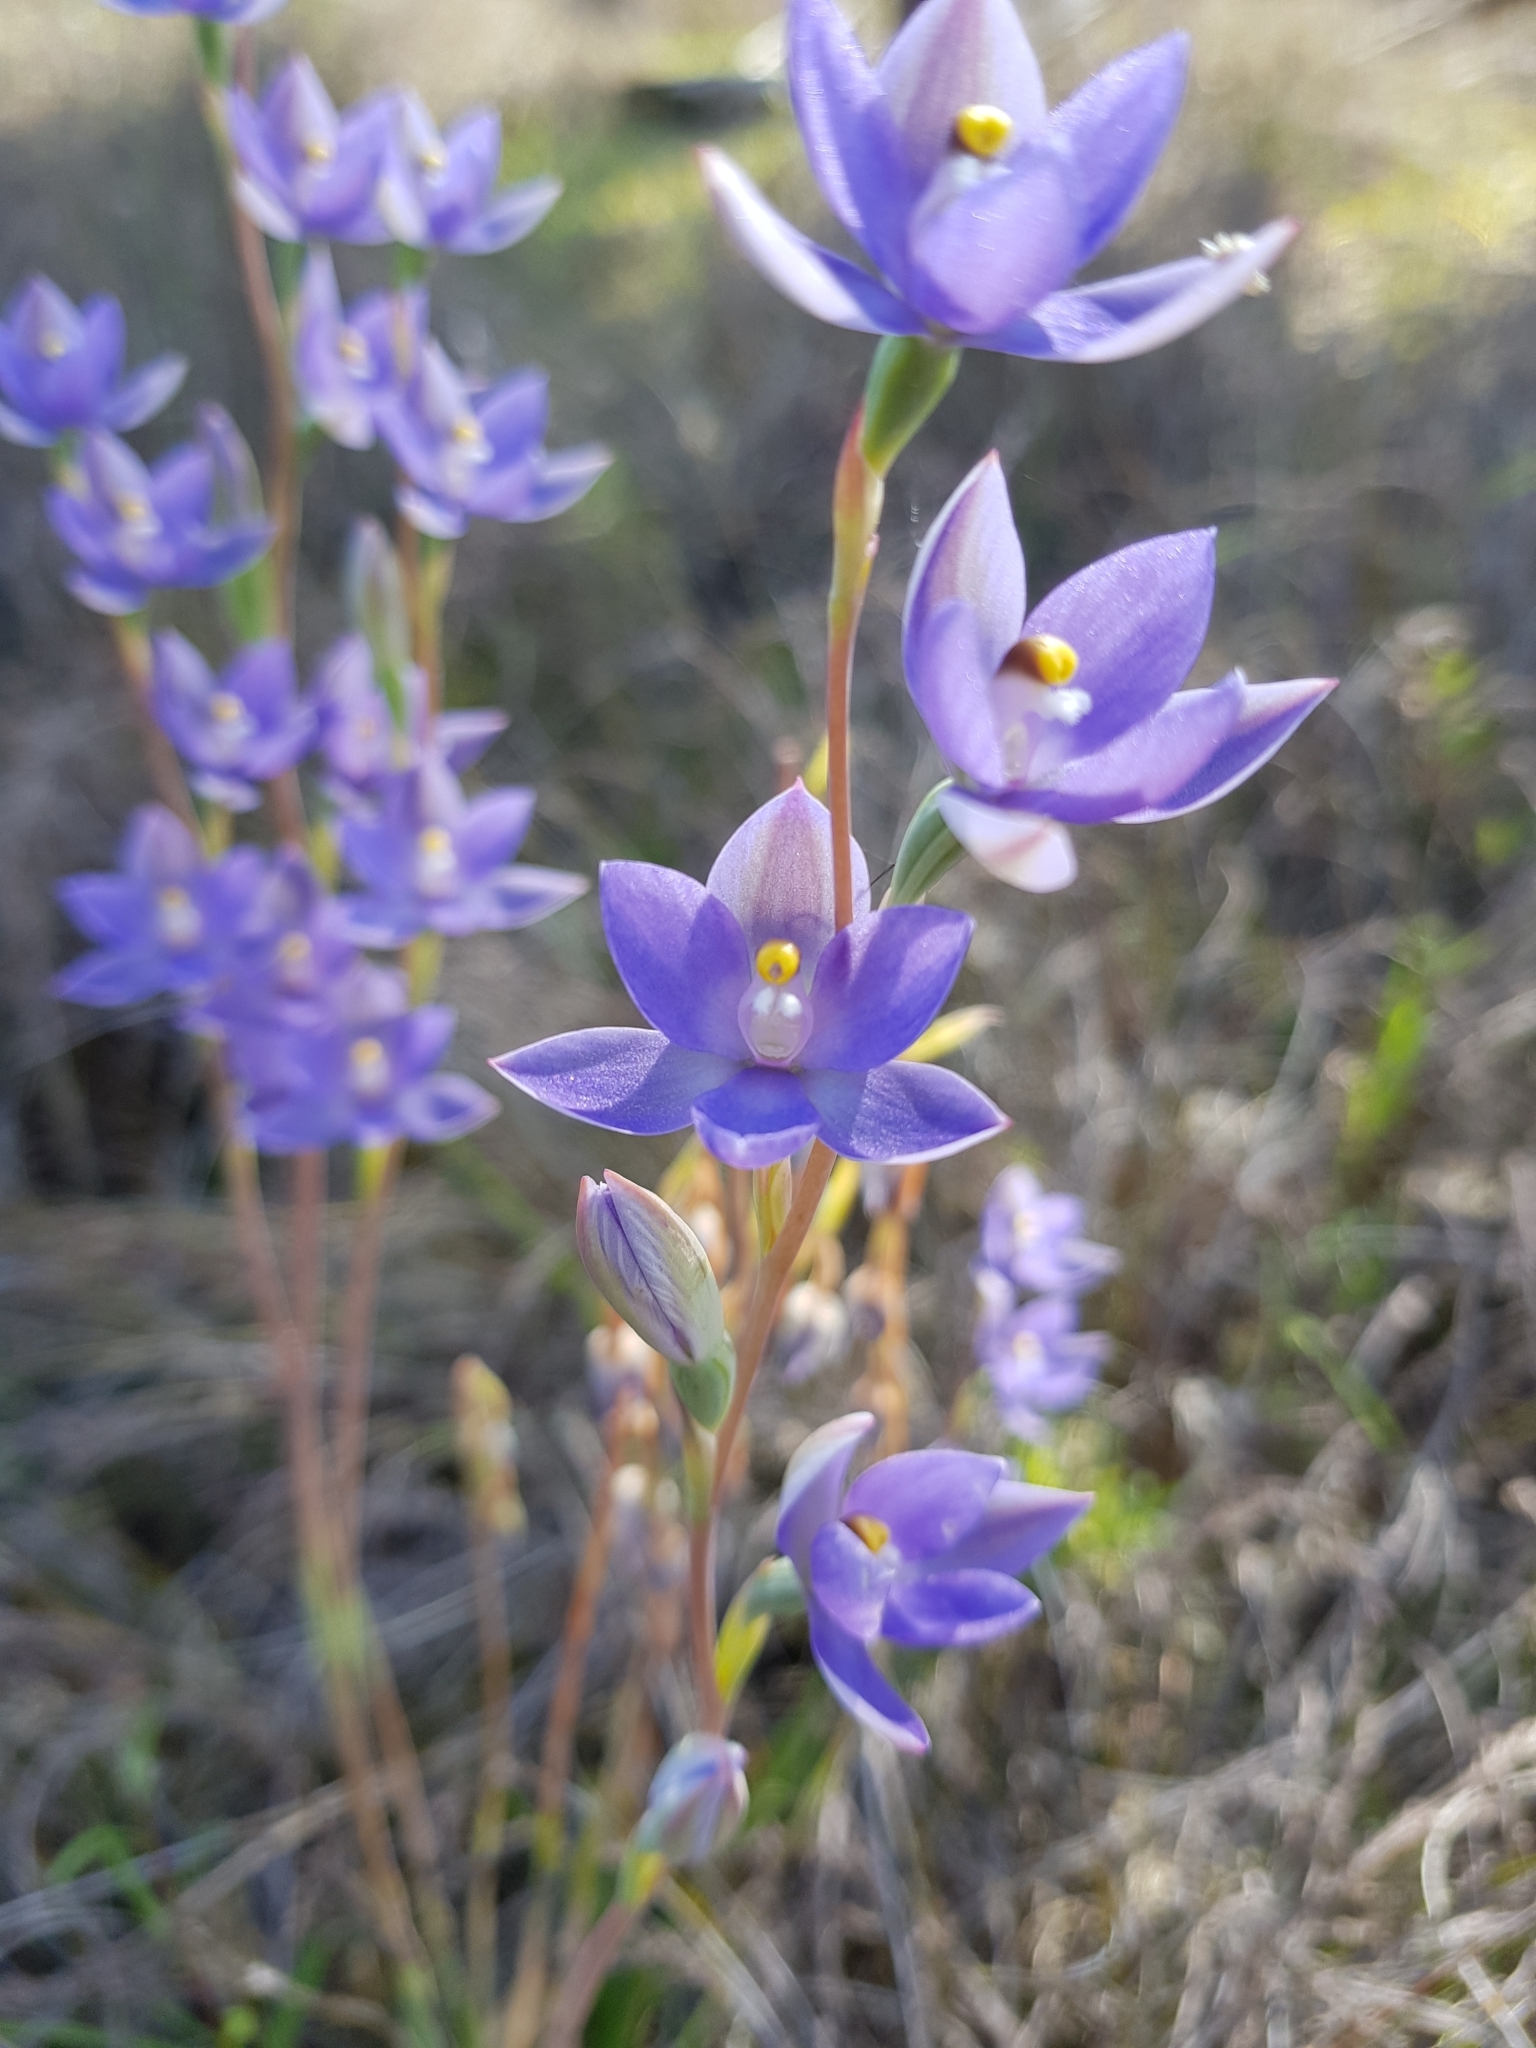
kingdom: Plantae
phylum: Tracheophyta
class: Liliopsida
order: Asparagales
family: Orchidaceae
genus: Thelymitra
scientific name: Thelymitra macrophylla
